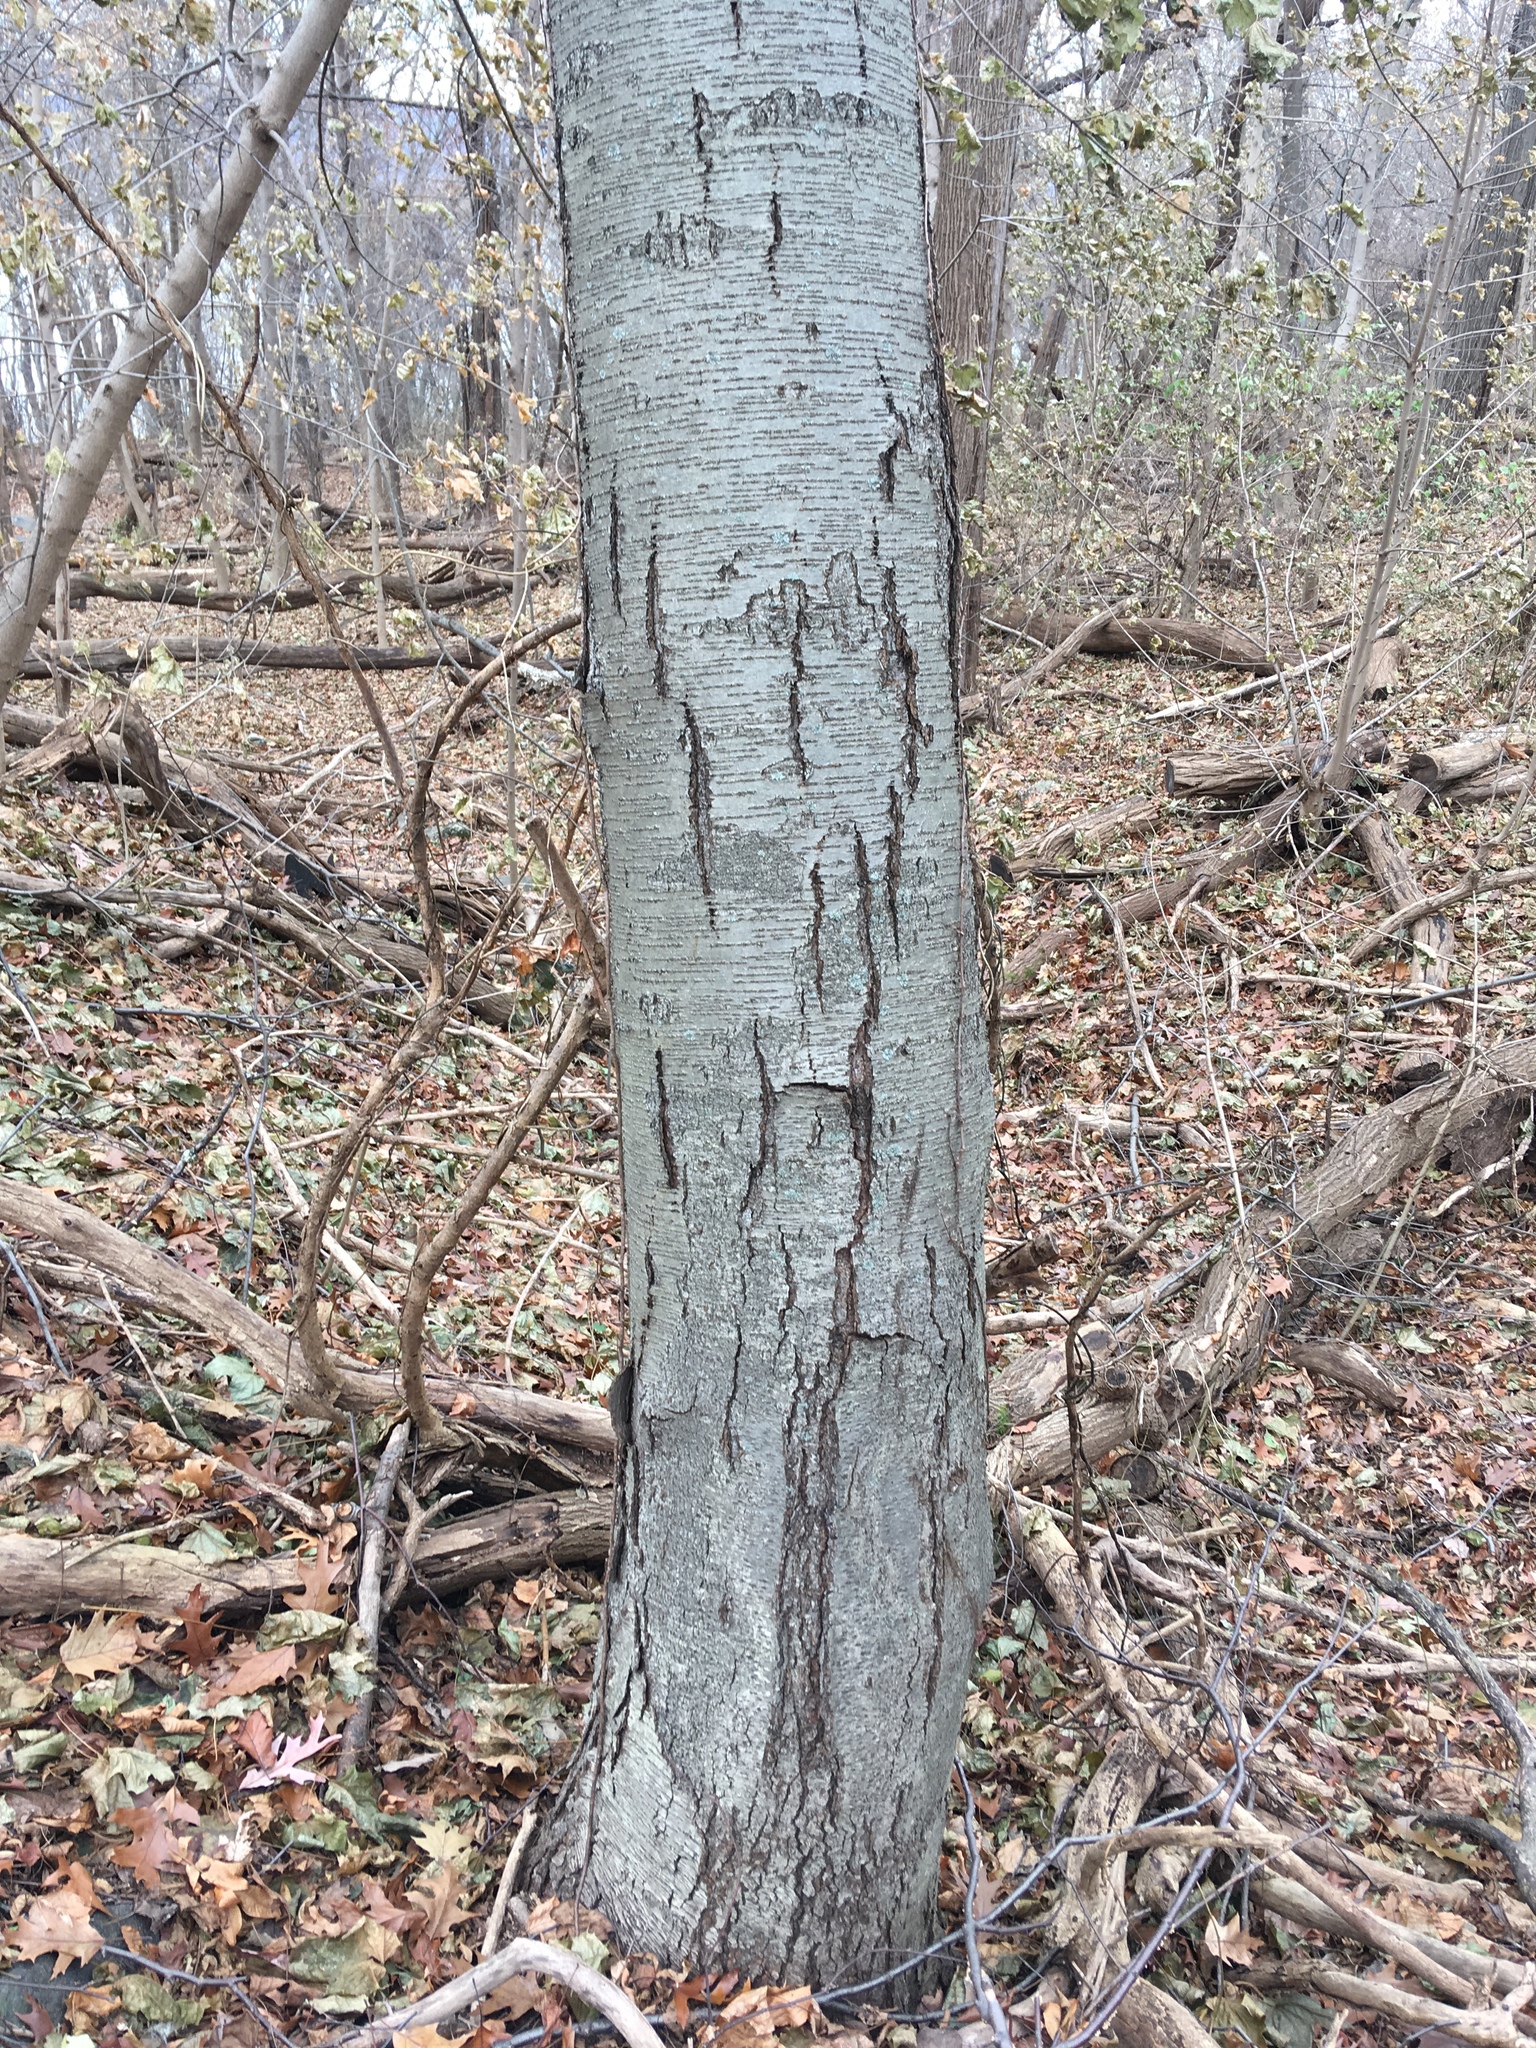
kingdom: Plantae
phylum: Tracheophyta
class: Magnoliopsida
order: Fagales
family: Betulaceae
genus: Betula
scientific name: Betula lenta
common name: Black birch
